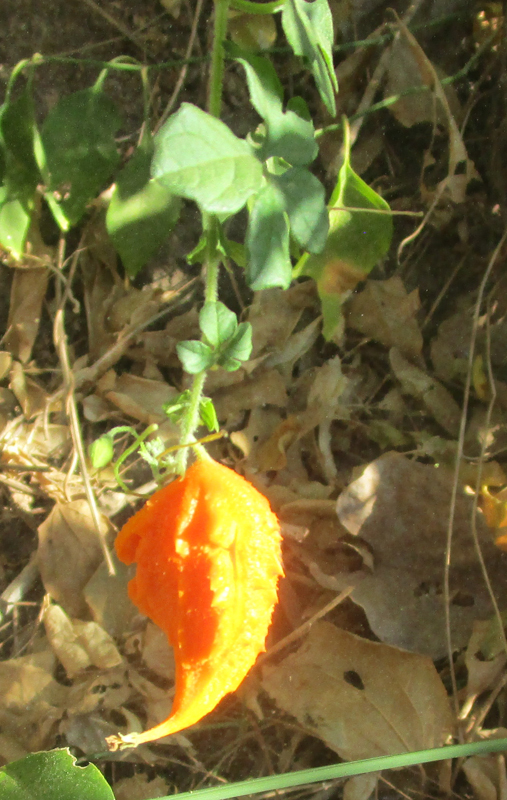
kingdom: Plantae
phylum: Tracheophyta
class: Magnoliopsida
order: Cucurbitales
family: Cucurbitaceae
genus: Momordica
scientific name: Momordica charantia
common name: Balsampear
